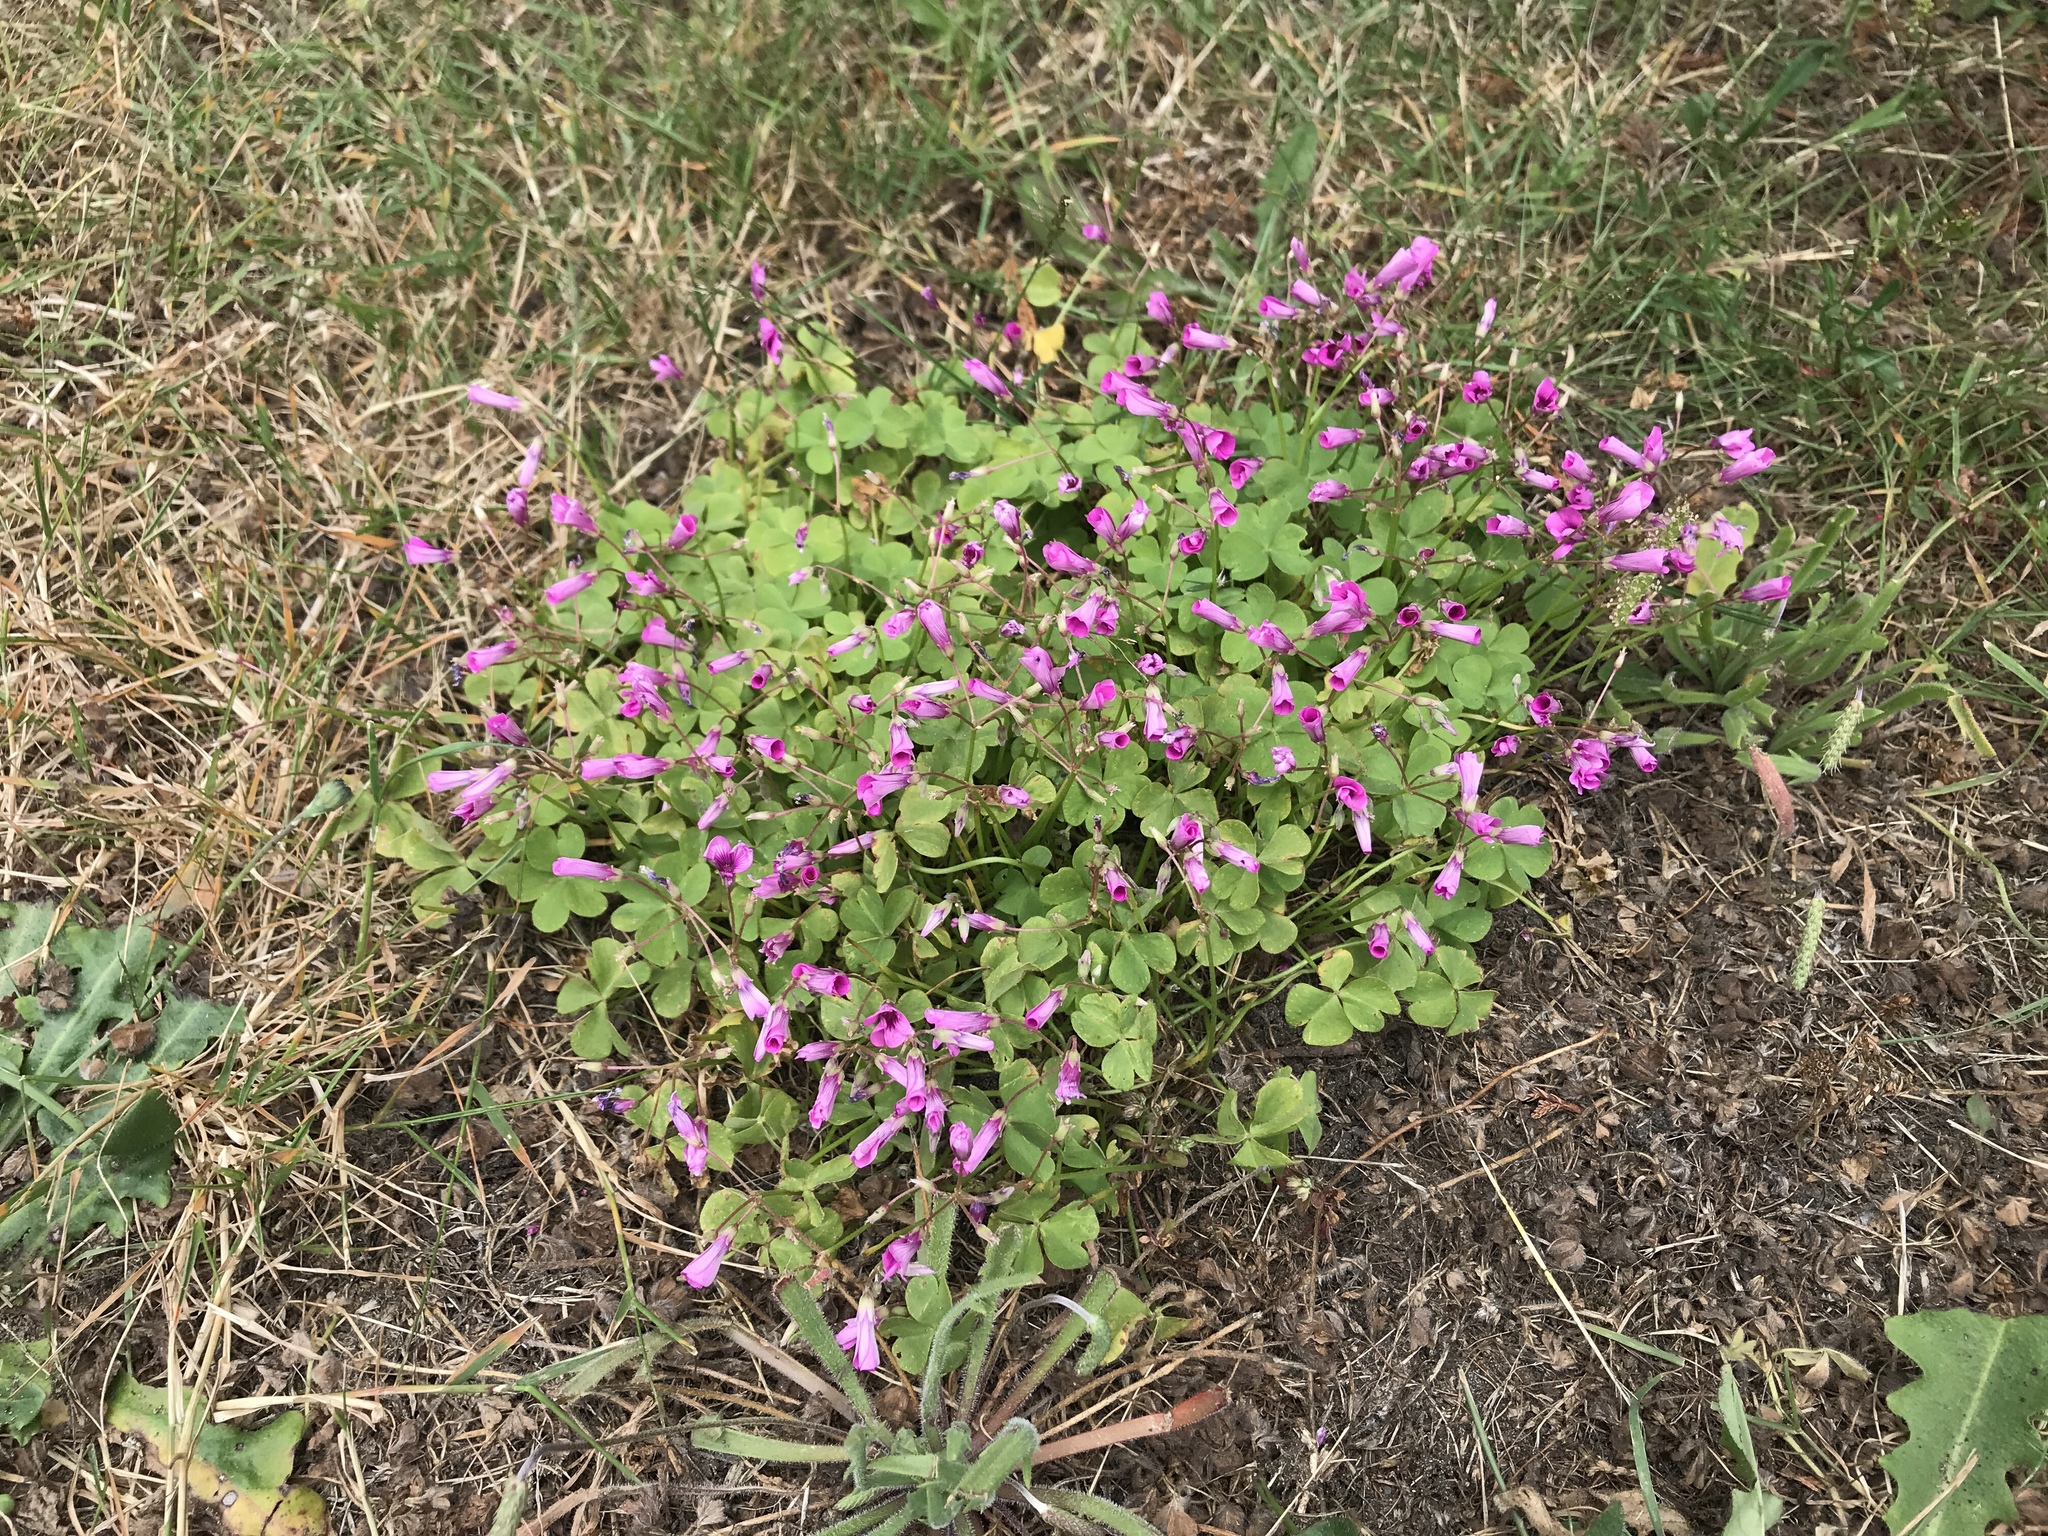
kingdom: Plantae
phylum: Tracheophyta
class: Magnoliopsida
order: Oxalidales
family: Oxalidaceae
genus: Oxalis
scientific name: Oxalis articulata
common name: Pink-sorrel
